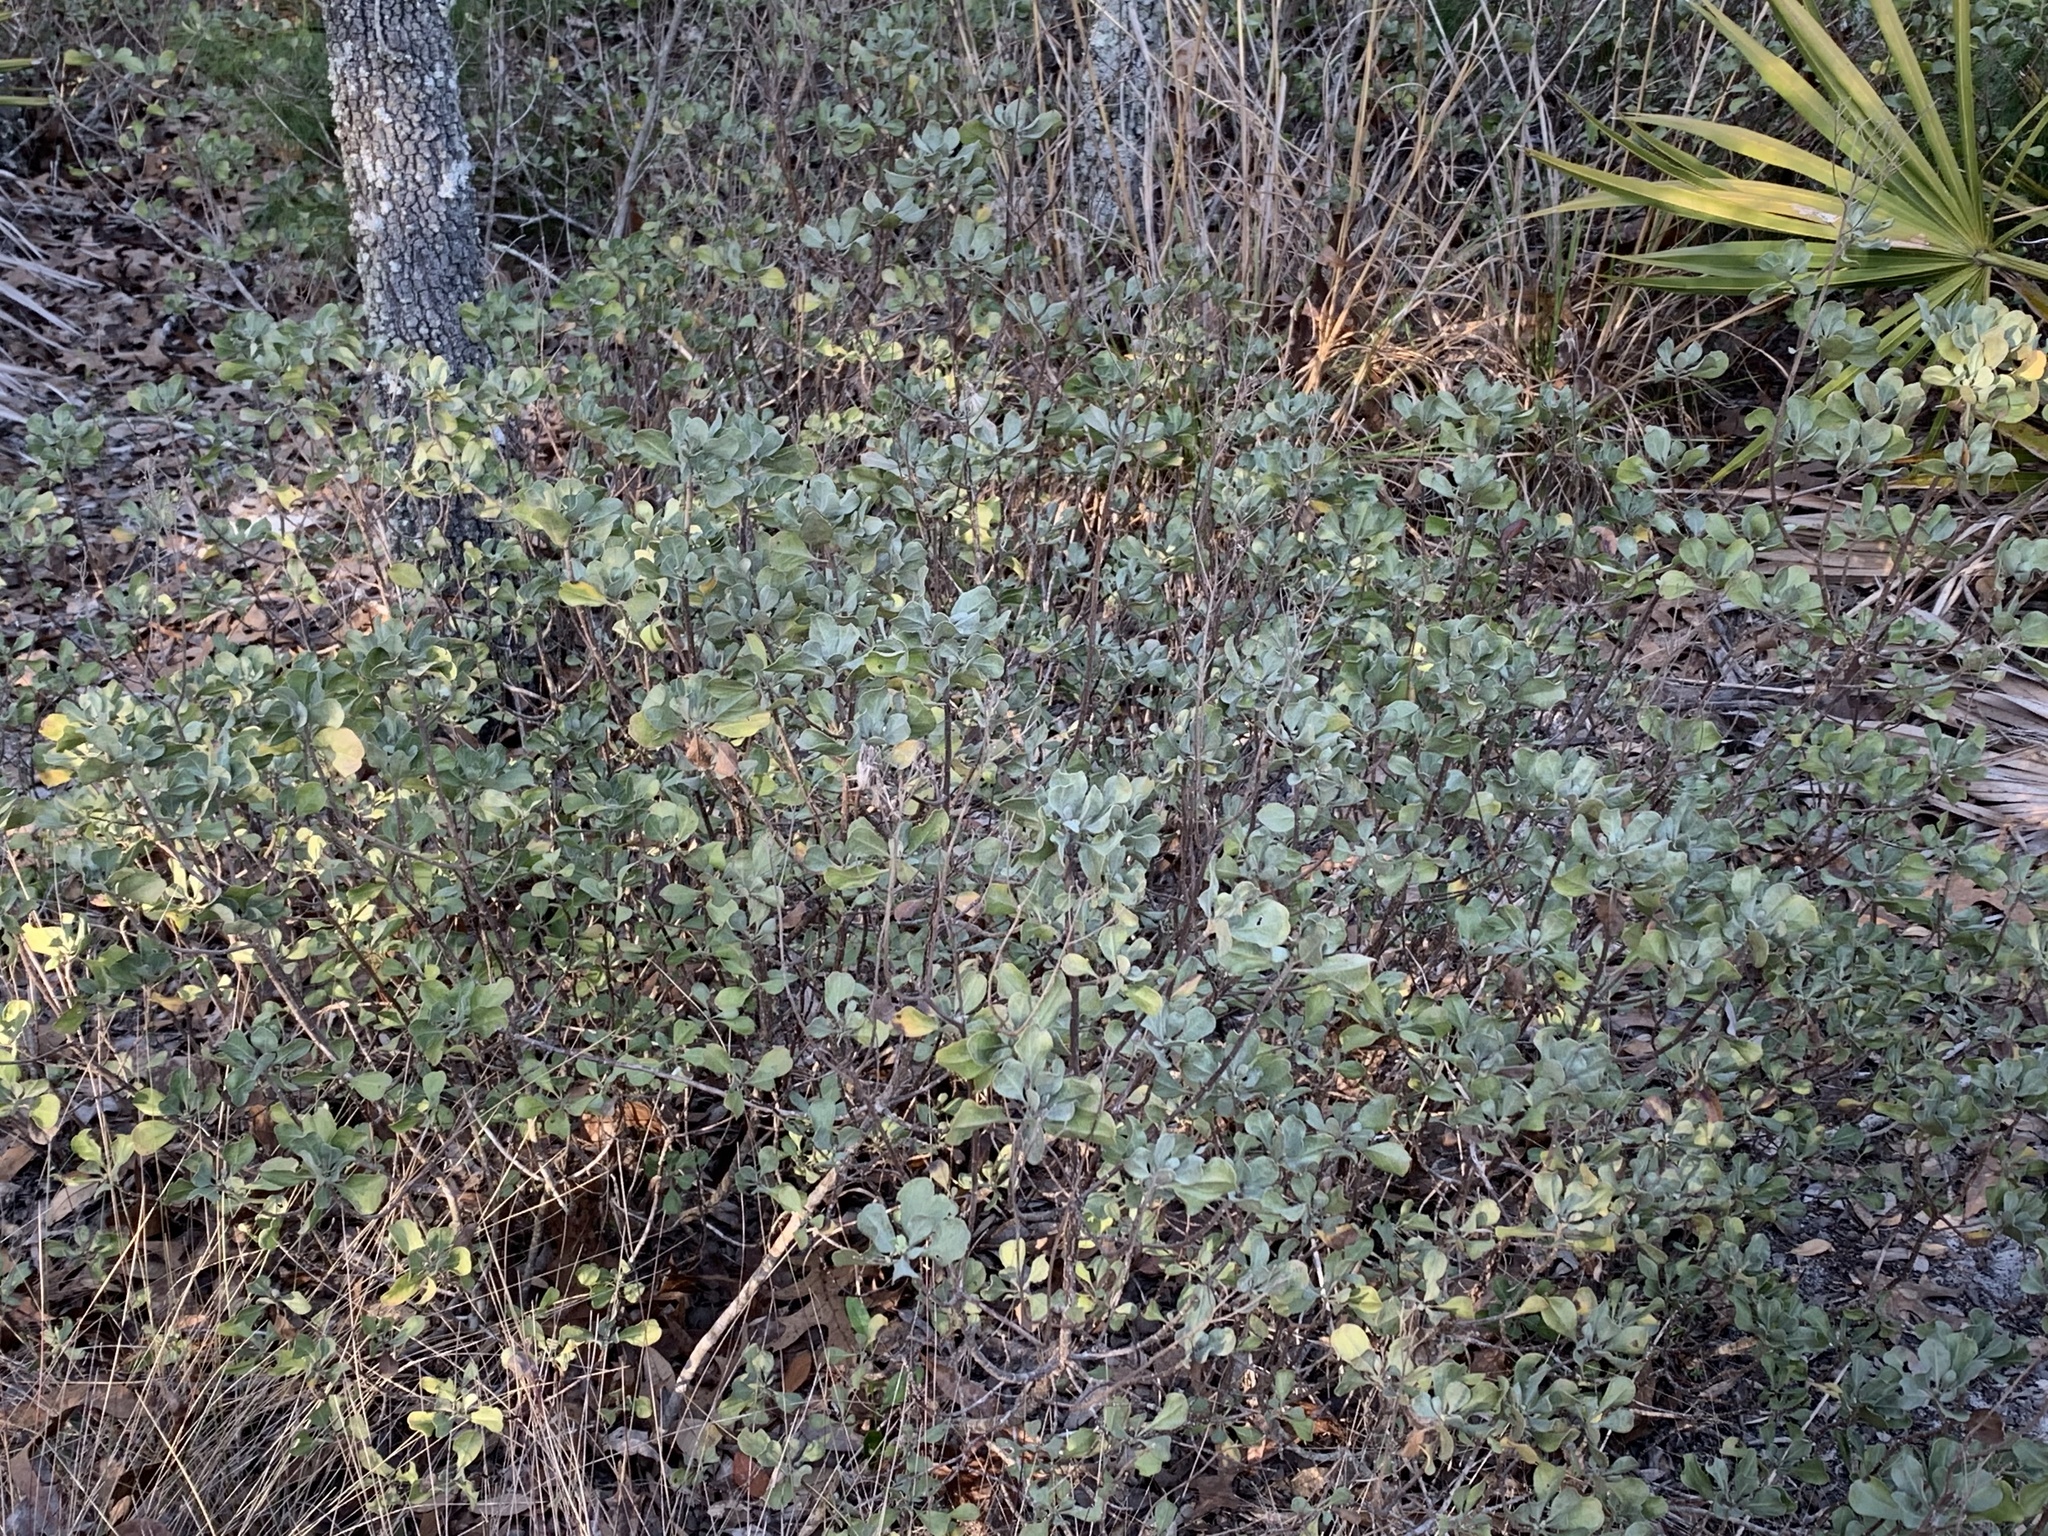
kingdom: Plantae
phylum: Tracheophyta
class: Magnoliopsida
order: Asterales
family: Asteraceae
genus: Garberia
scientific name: Garberia heterophylla
